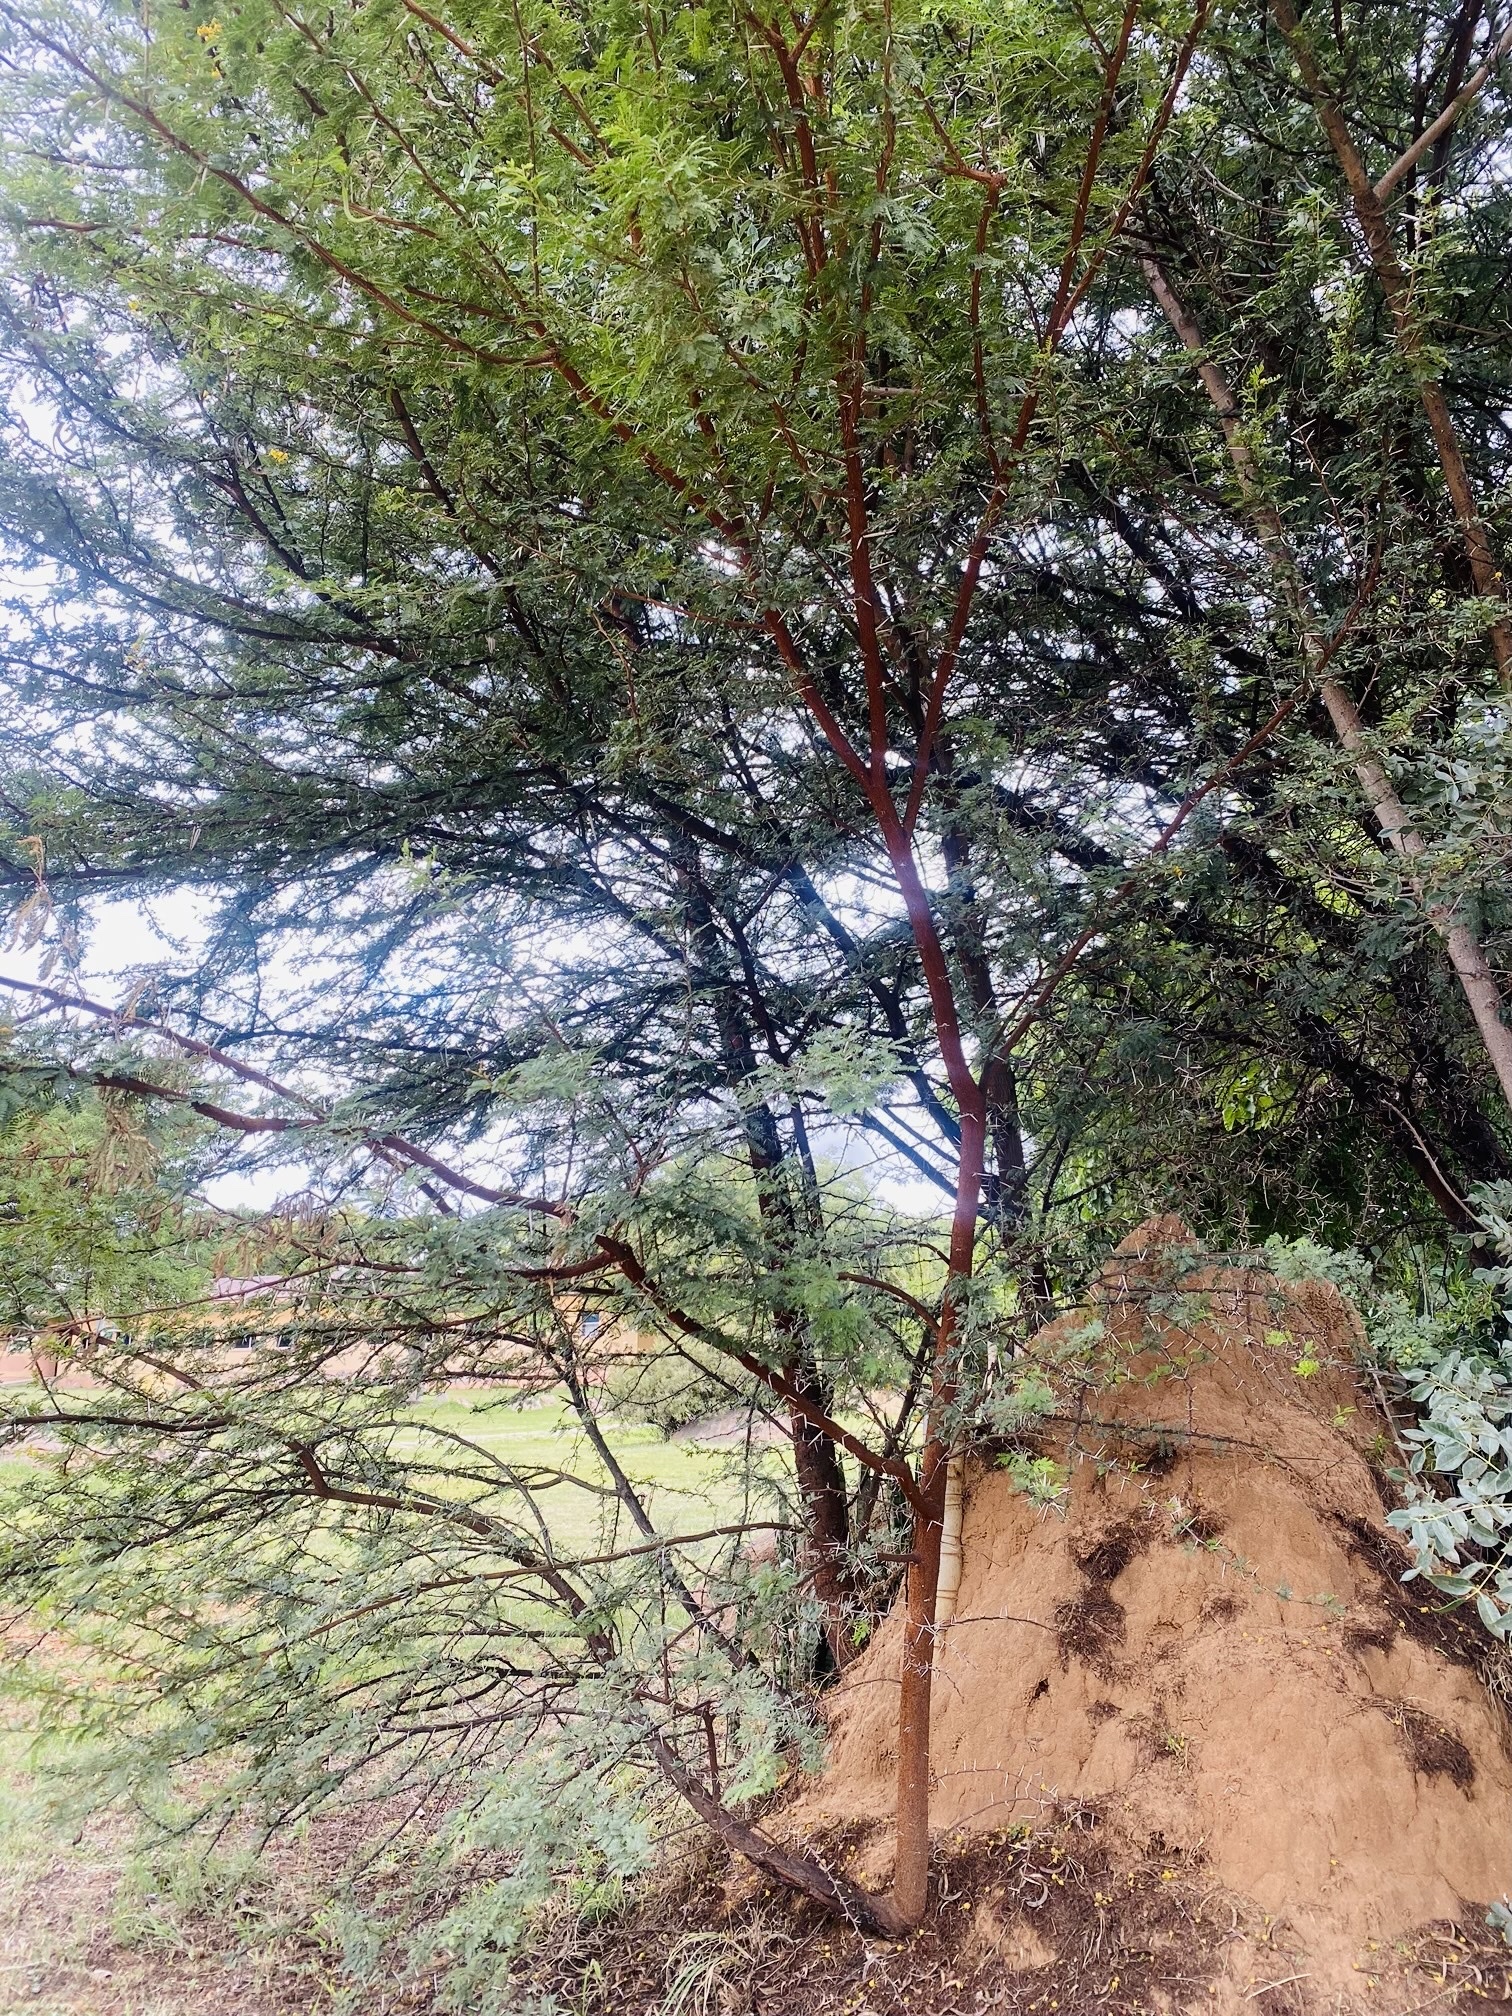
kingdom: Plantae
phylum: Tracheophyta
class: Magnoliopsida
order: Fabales
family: Fabaceae
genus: Vachellia
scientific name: Vachellia karroo
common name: Sweet thorn
